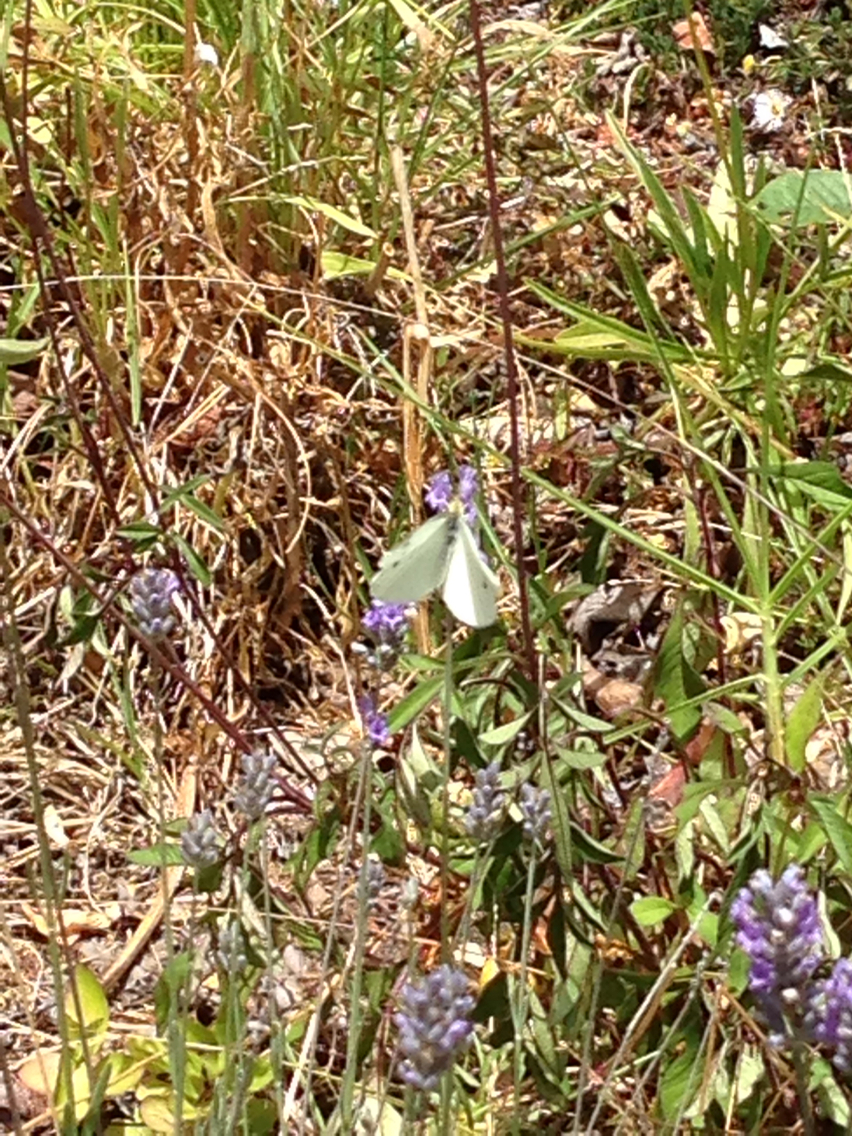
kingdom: Animalia
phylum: Arthropoda
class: Insecta
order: Lepidoptera
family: Pieridae
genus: Pieris
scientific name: Pieris rapae
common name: Small white
